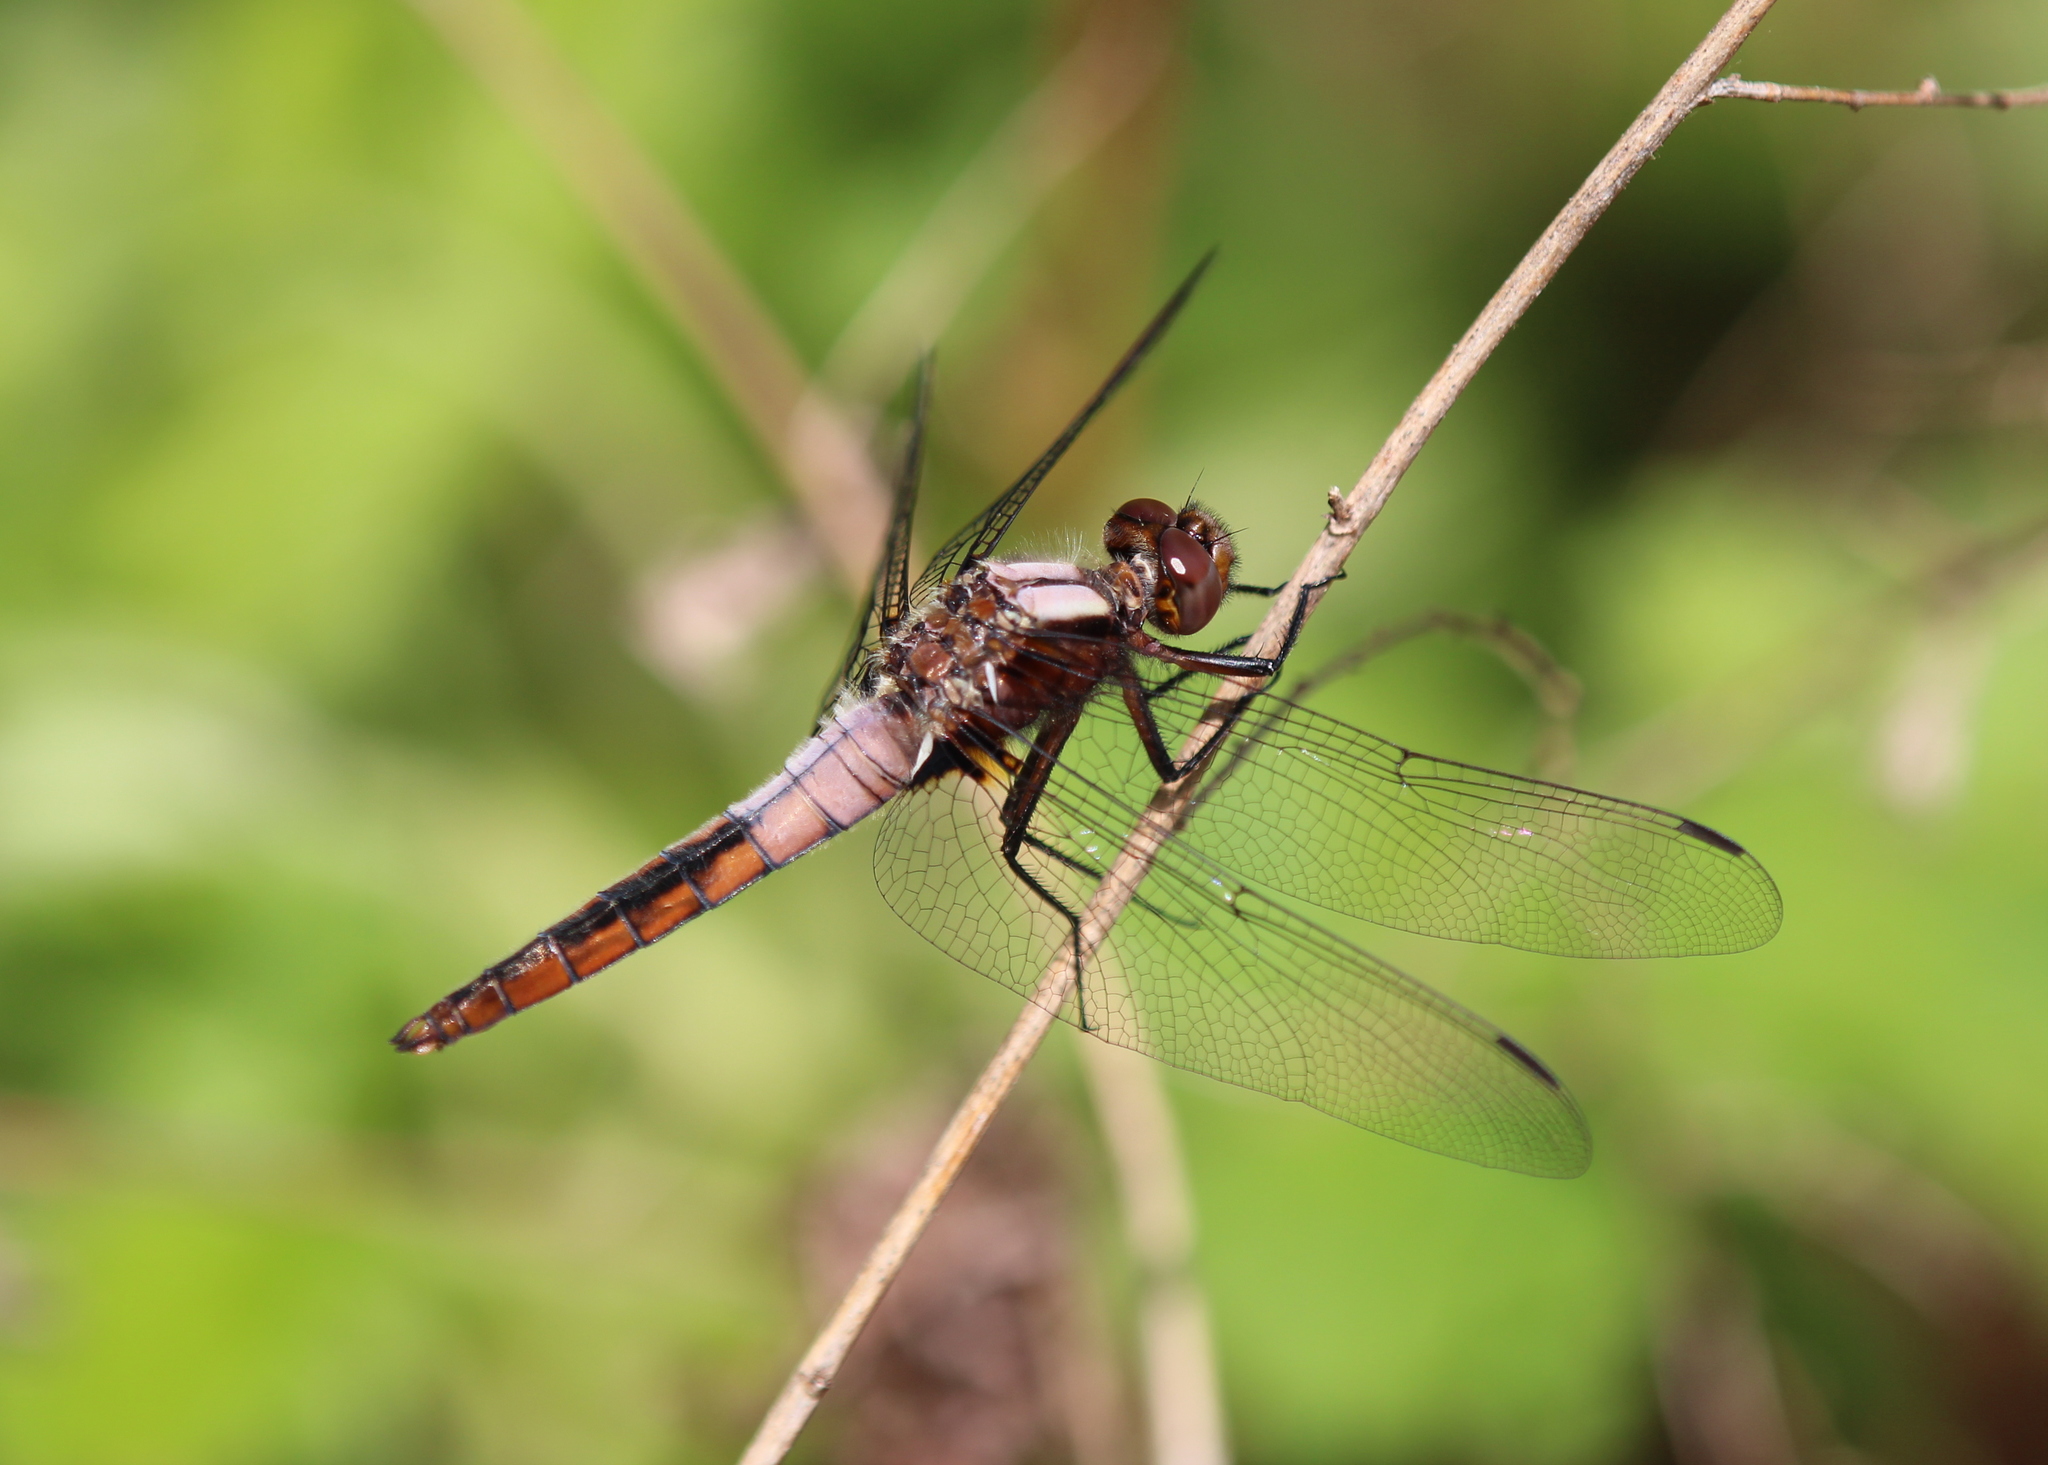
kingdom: Animalia
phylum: Arthropoda
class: Insecta
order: Odonata
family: Libellulidae
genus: Ladona
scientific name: Ladona julia
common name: Chalk-fronted corporal
